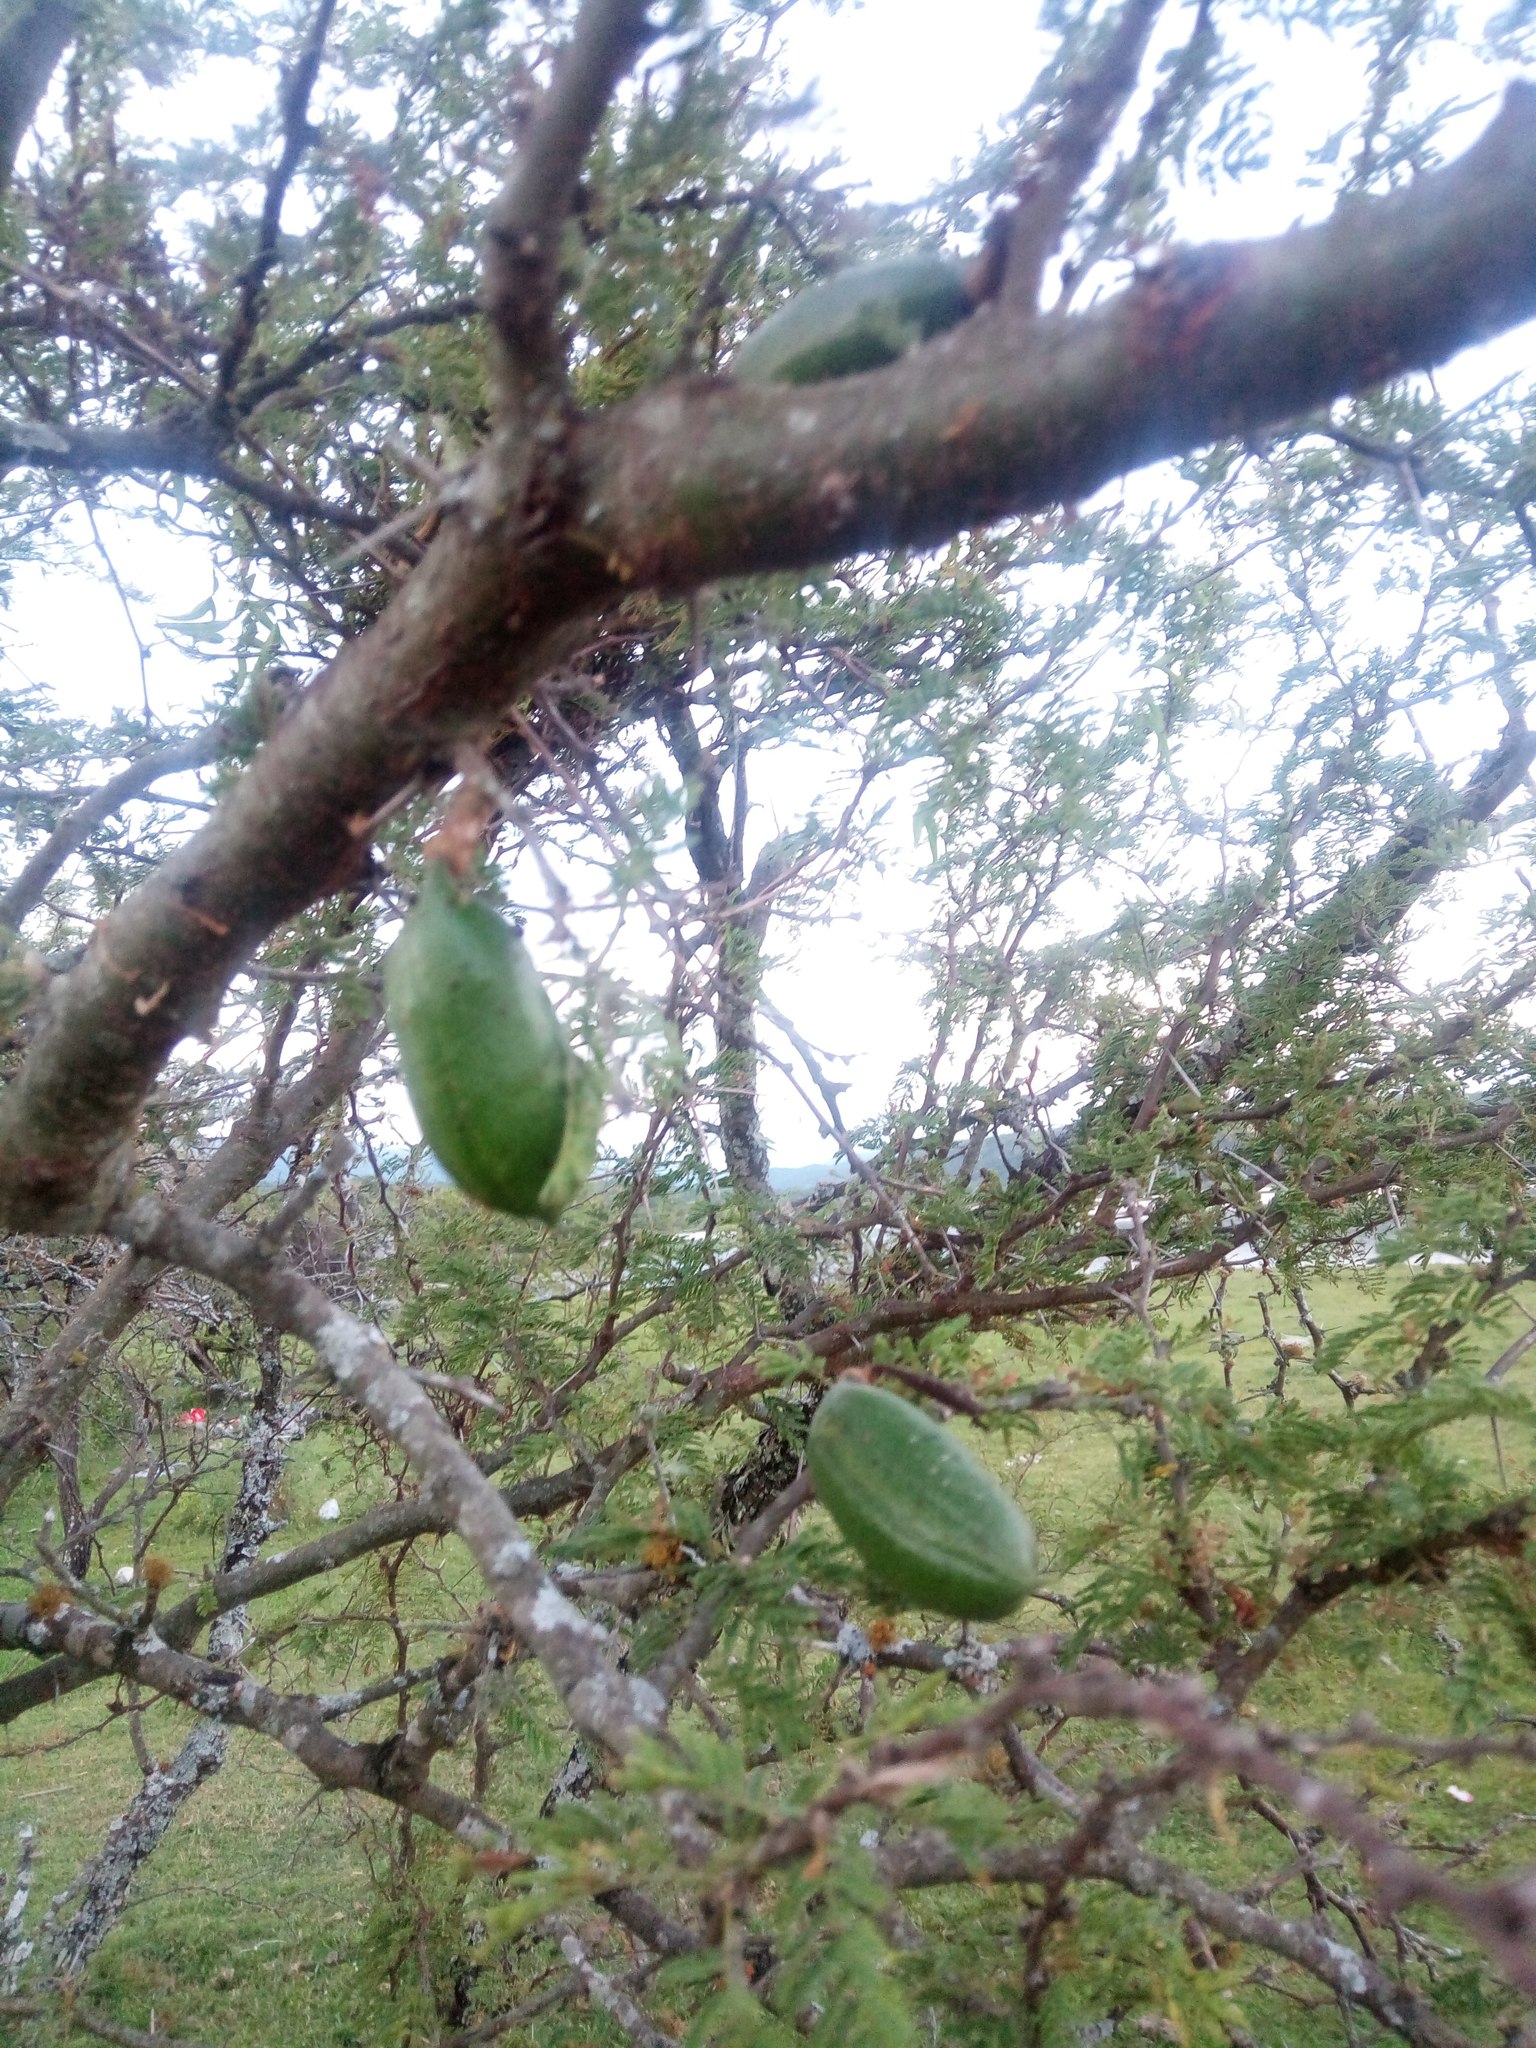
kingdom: Plantae
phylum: Tracheophyta
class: Magnoliopsida
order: Fabales
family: Fabaceae
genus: Vachellia
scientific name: Vachellia caven
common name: Roman cassie
